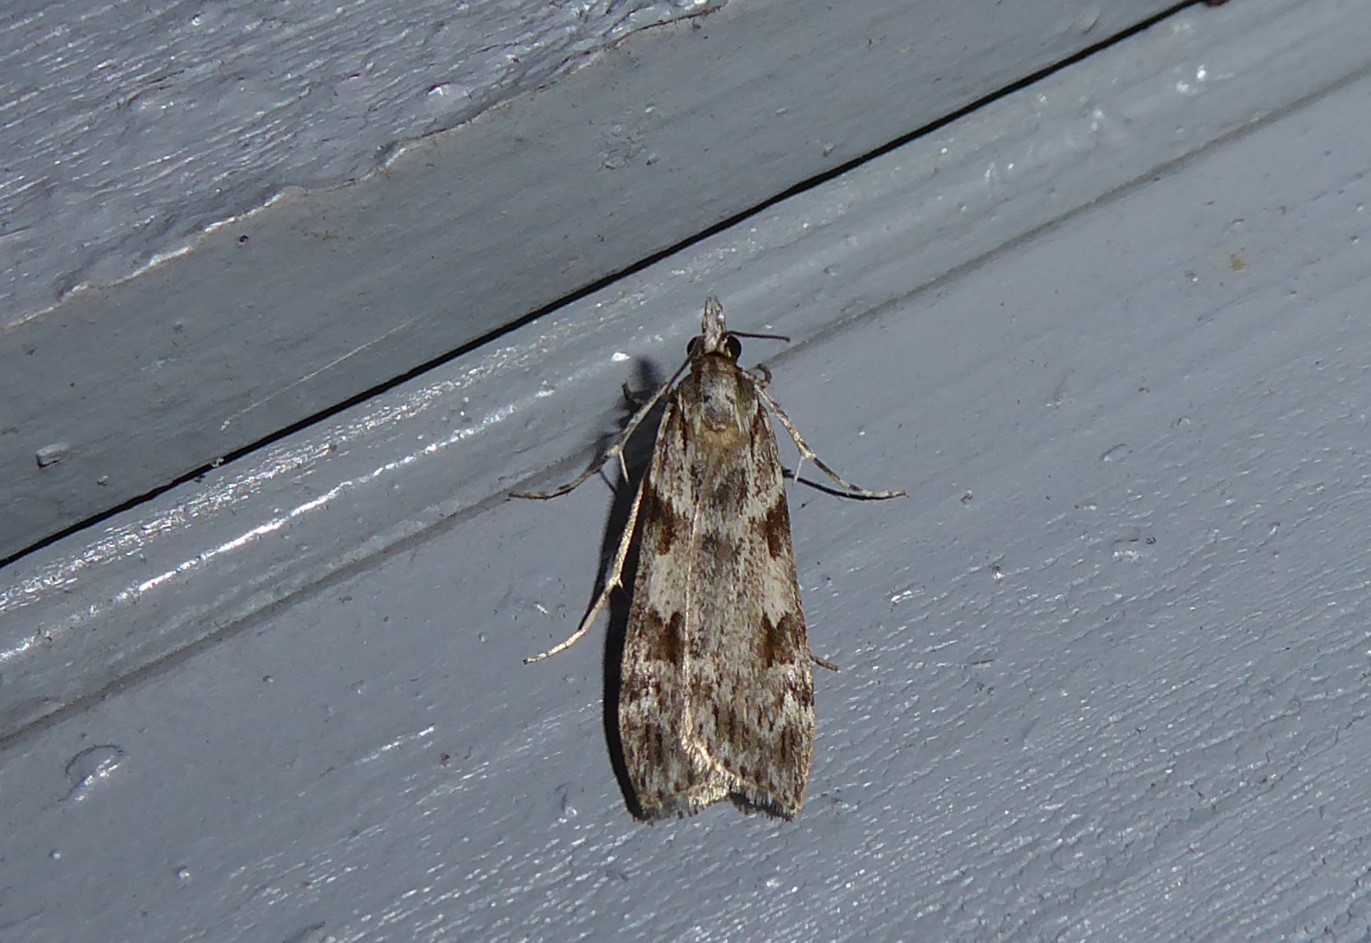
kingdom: Animalia
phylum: Arthropoda
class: Insecta
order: Lepidoptera
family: Crambidae
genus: Scoparia
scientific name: Scoparia halopis
